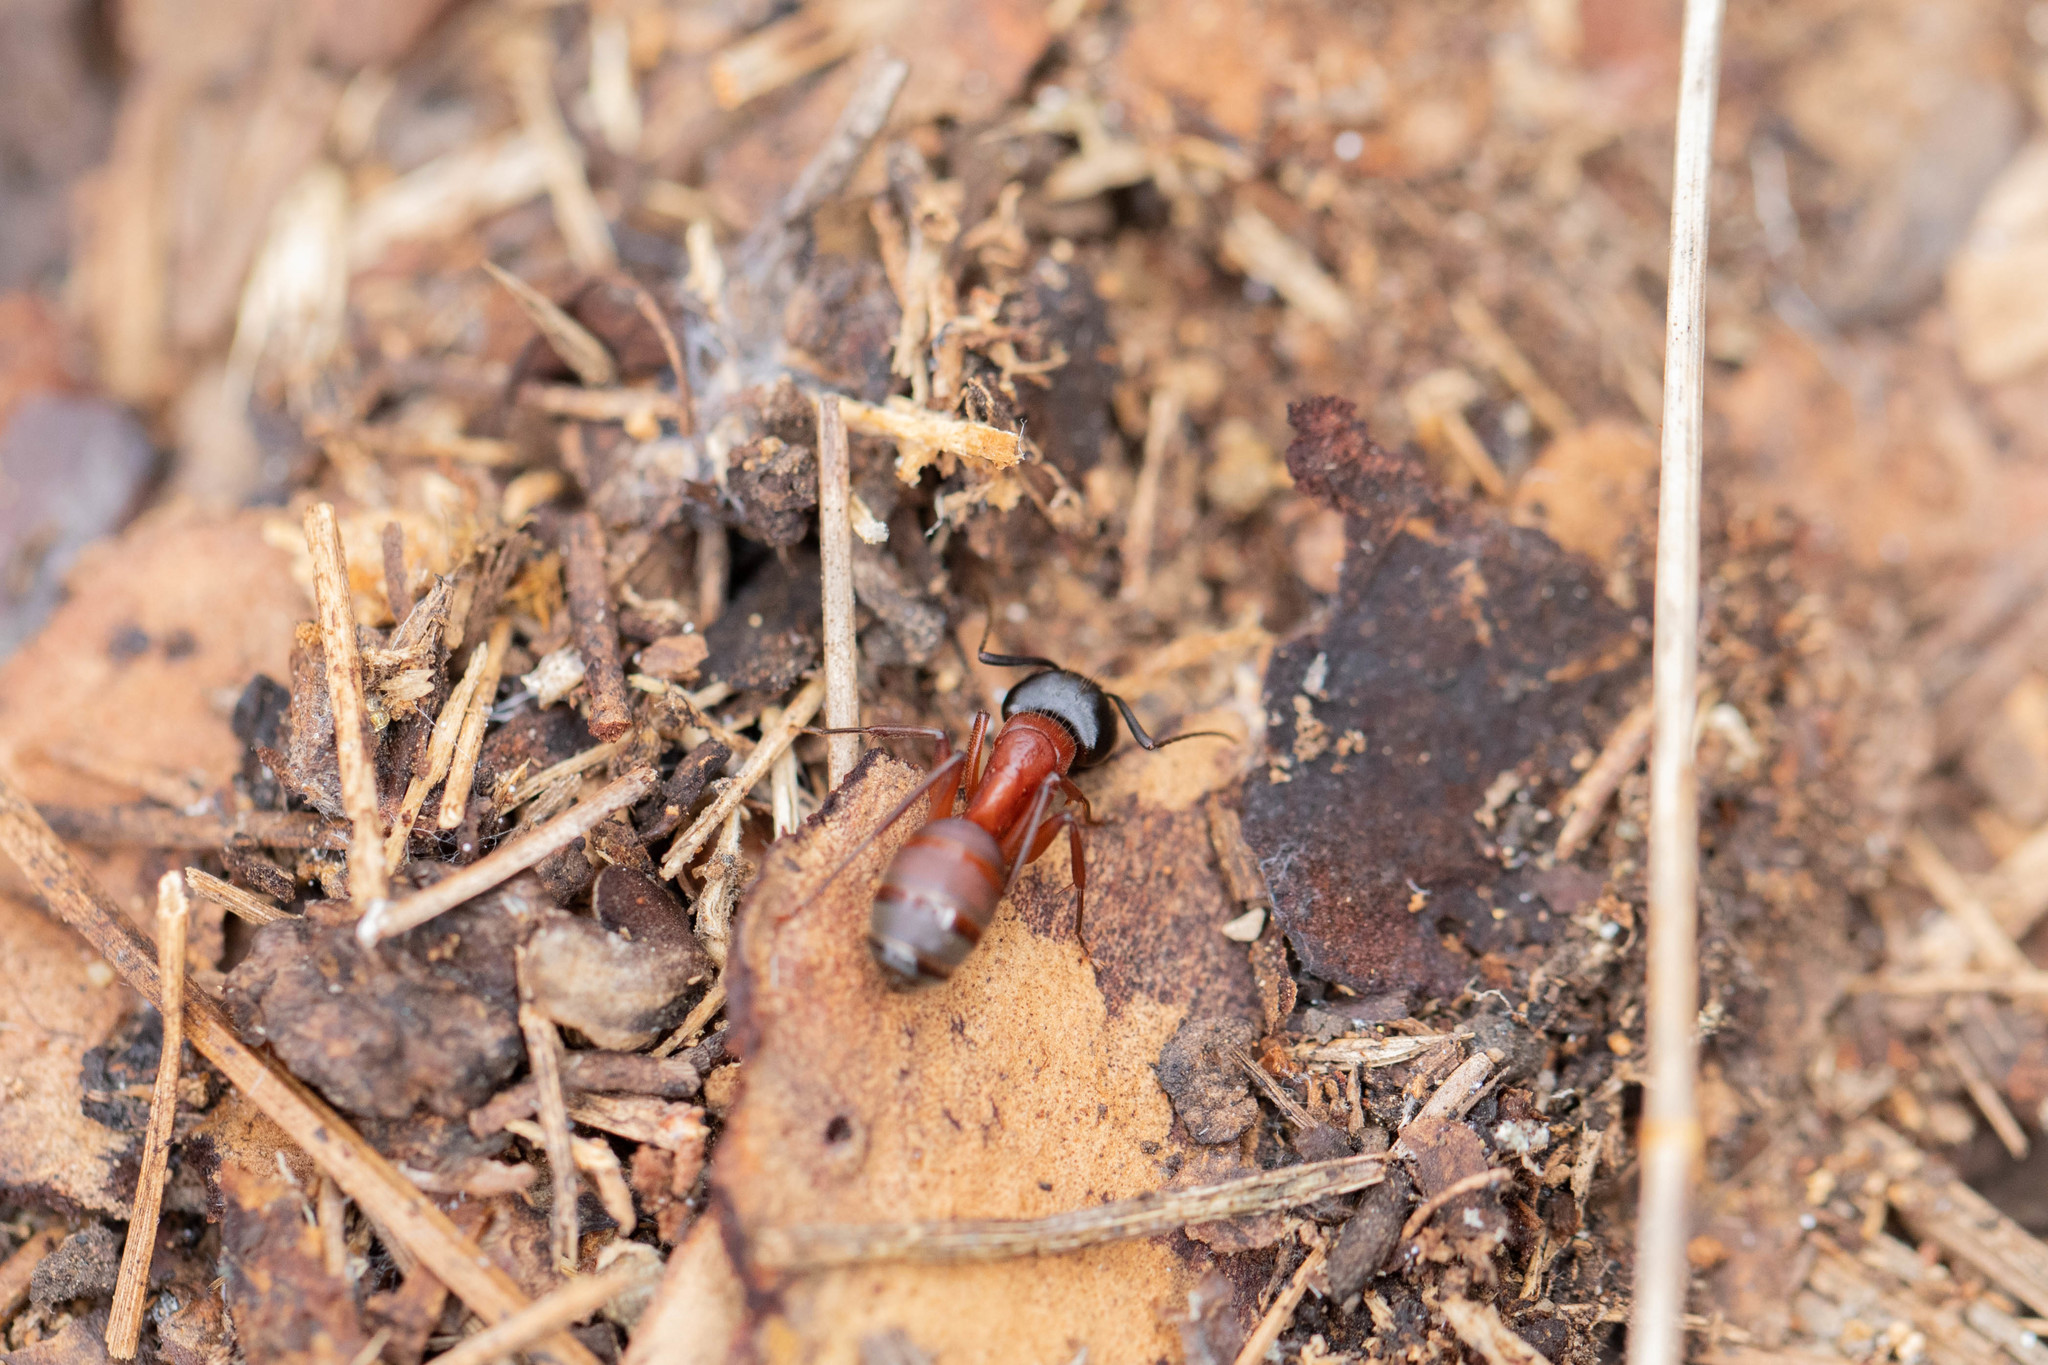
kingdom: Animalia
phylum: Arthropoda
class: Insecta
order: Hymenoptera
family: Formicidae
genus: Camponotus
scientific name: Camponotus vicinus
